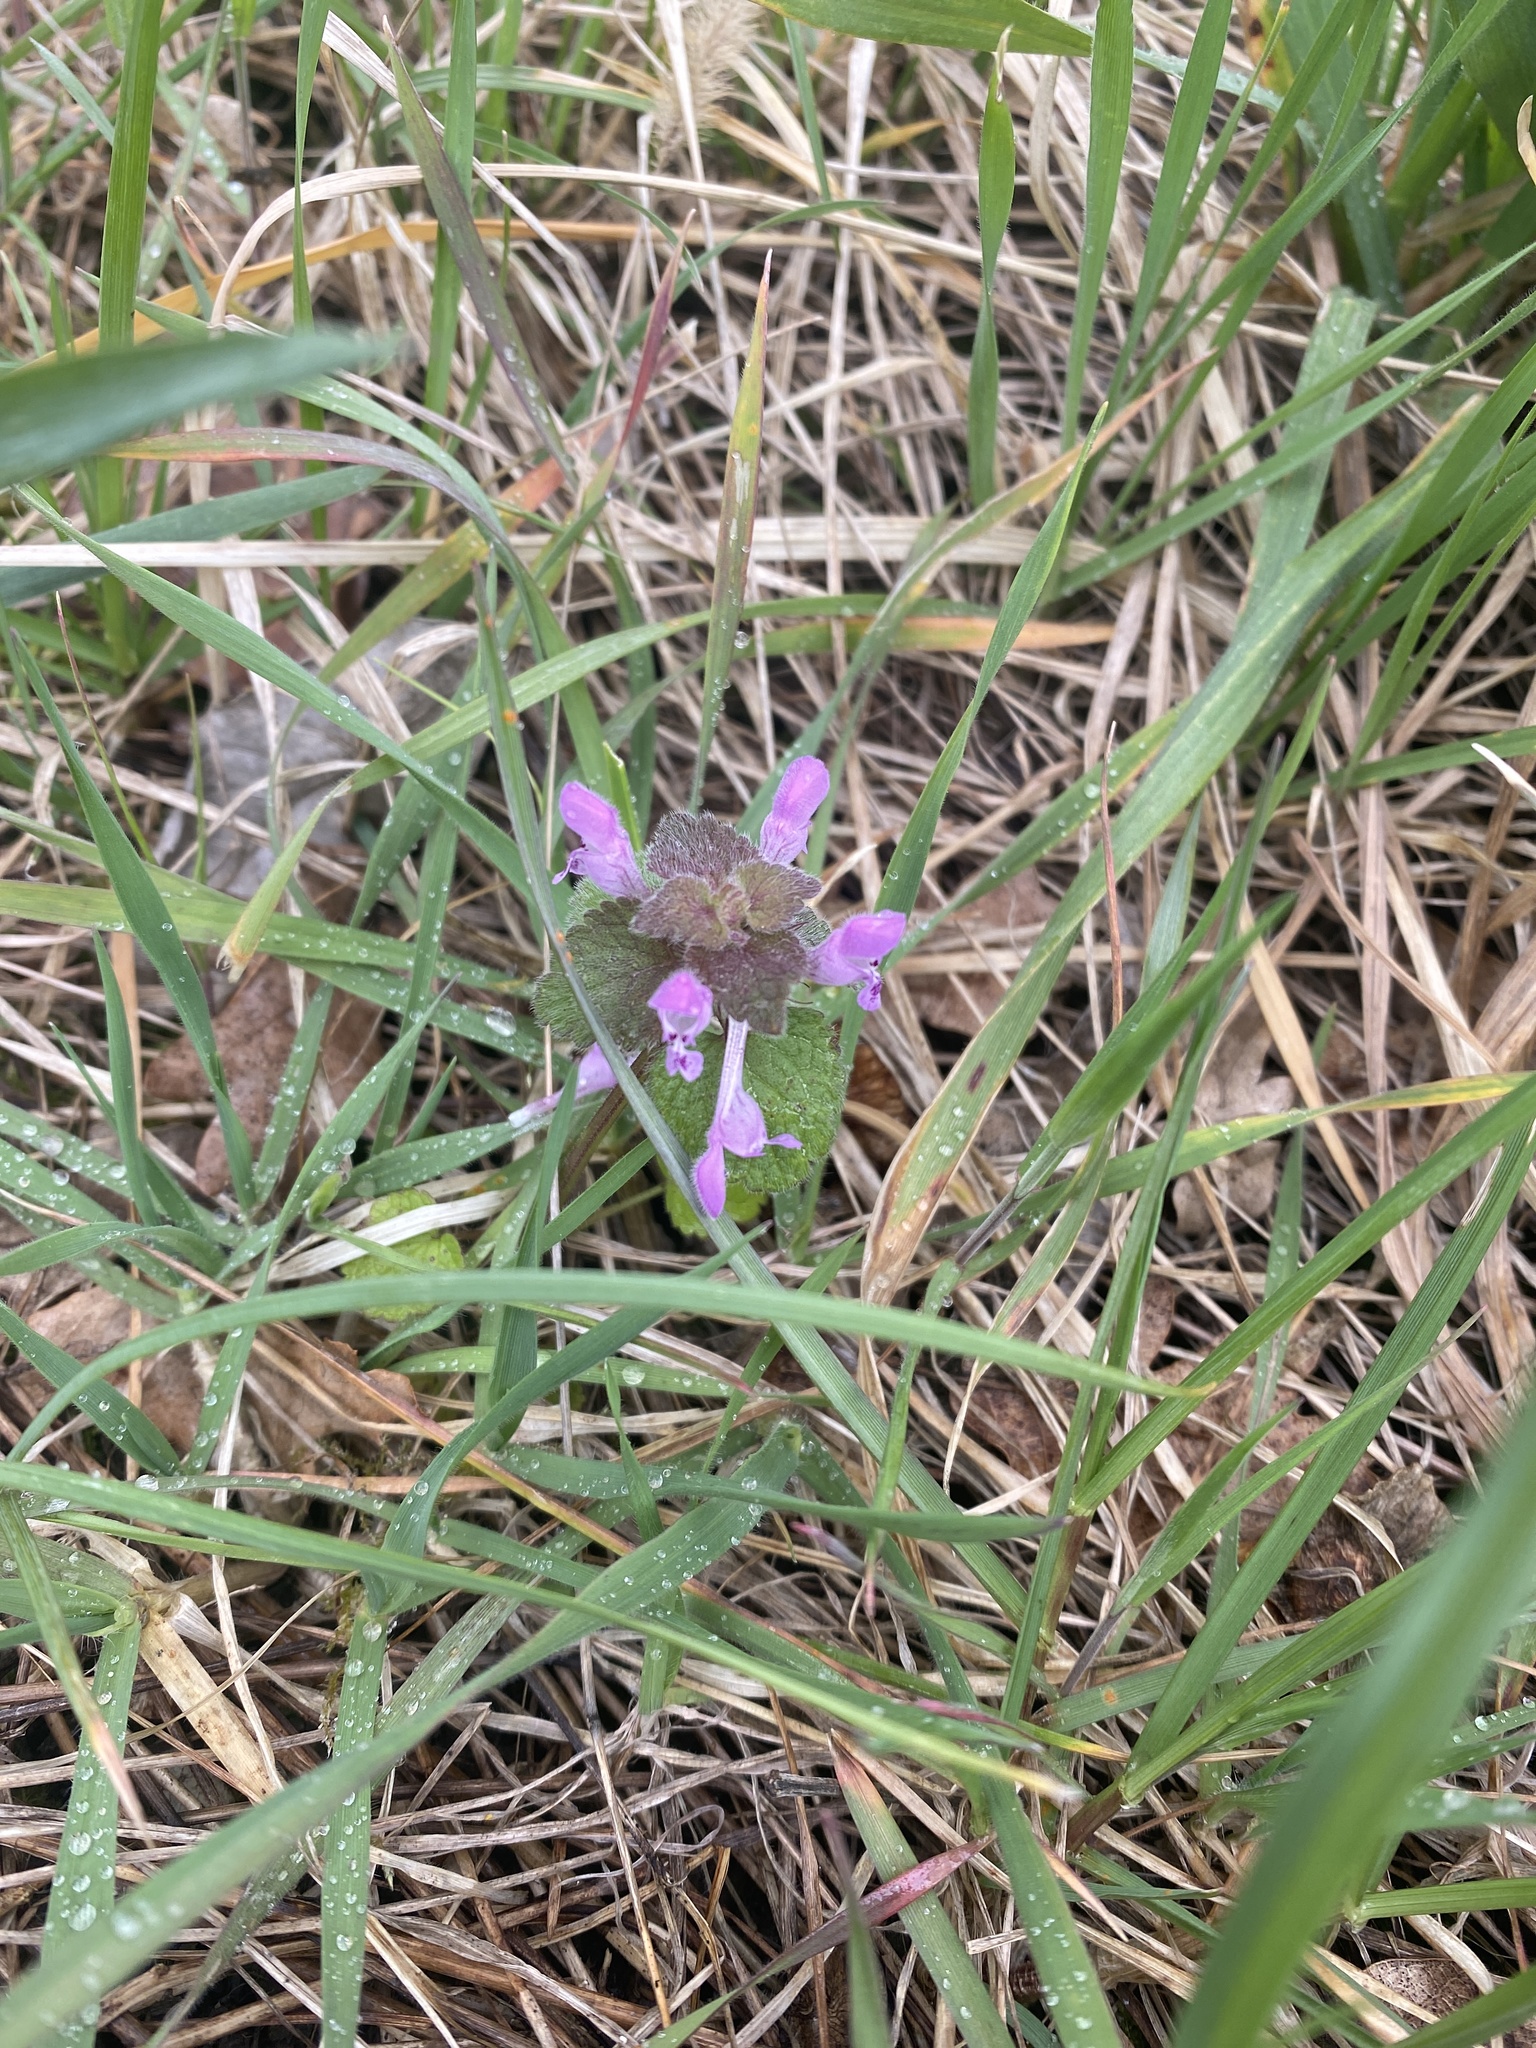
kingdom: Plantae
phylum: Tracheophyta
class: Magnoliopsida
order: Lamiales
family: Lamiaceae
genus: Lamium
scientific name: Lamium purpureum
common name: Red dead-nettle
